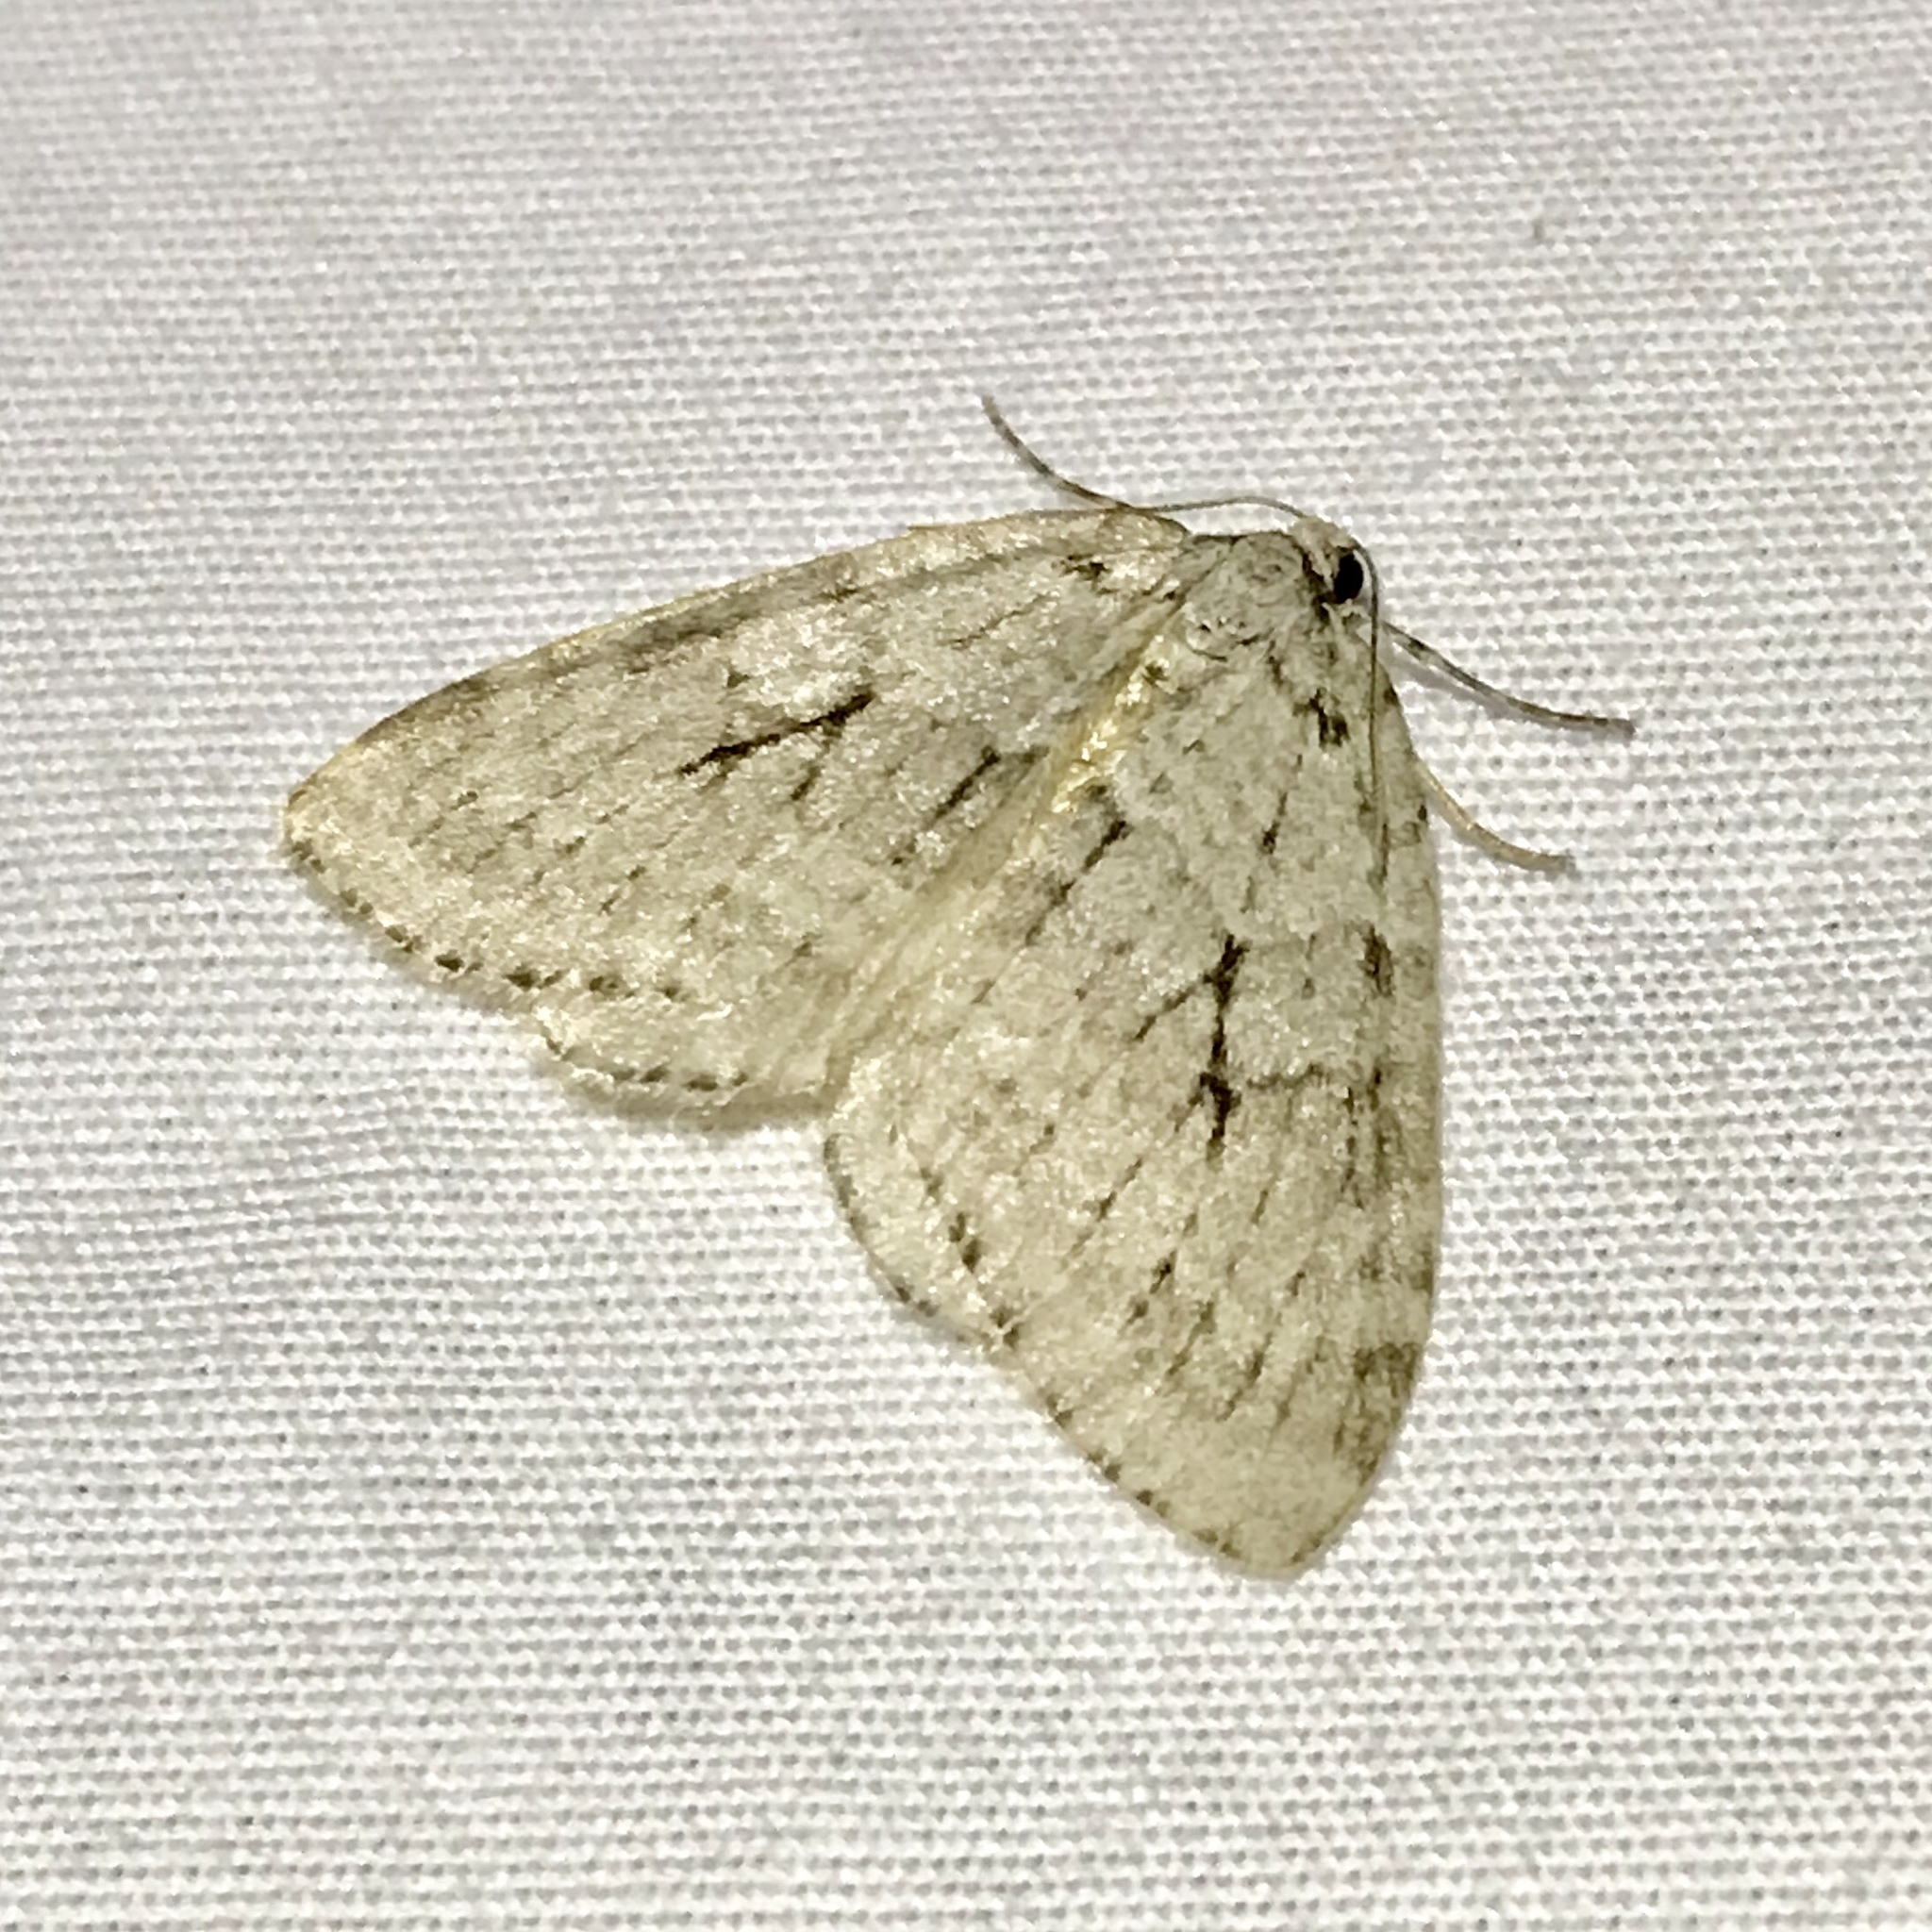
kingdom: Animalia
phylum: Arthropoda
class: Insecta
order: Lepidoptera
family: Geometridae
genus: Epirrita
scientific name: Epirrita autumnata
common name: Autumnal moth
